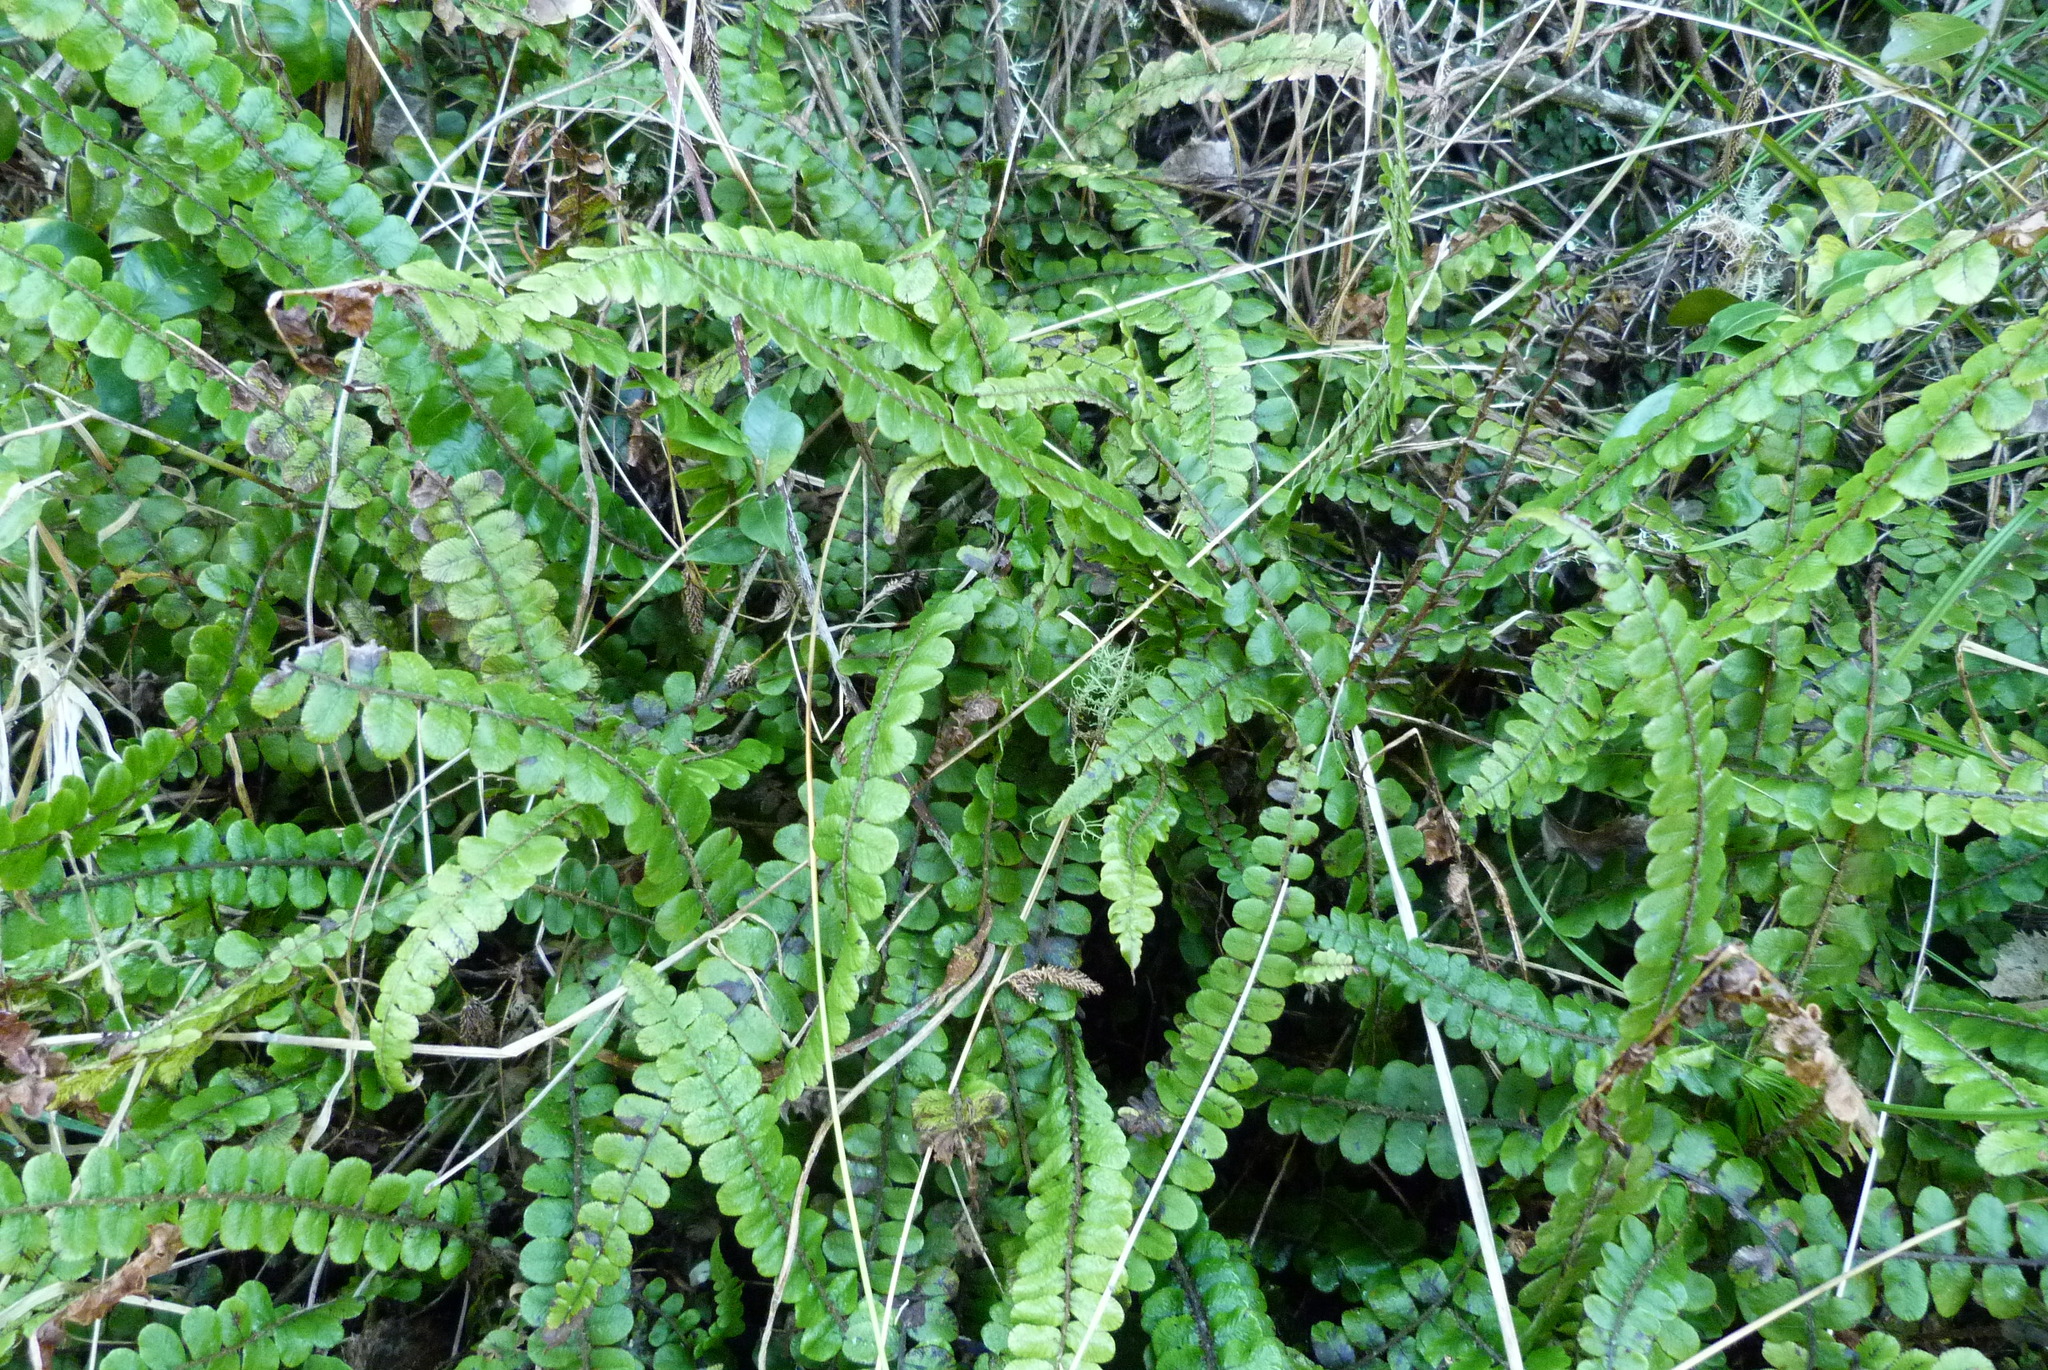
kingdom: Plantae
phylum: Tracheophyta
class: Polypodiopsida
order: Polypodiales
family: Blechnaceae
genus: Cranfillia
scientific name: Cranfillia fluviatilis
